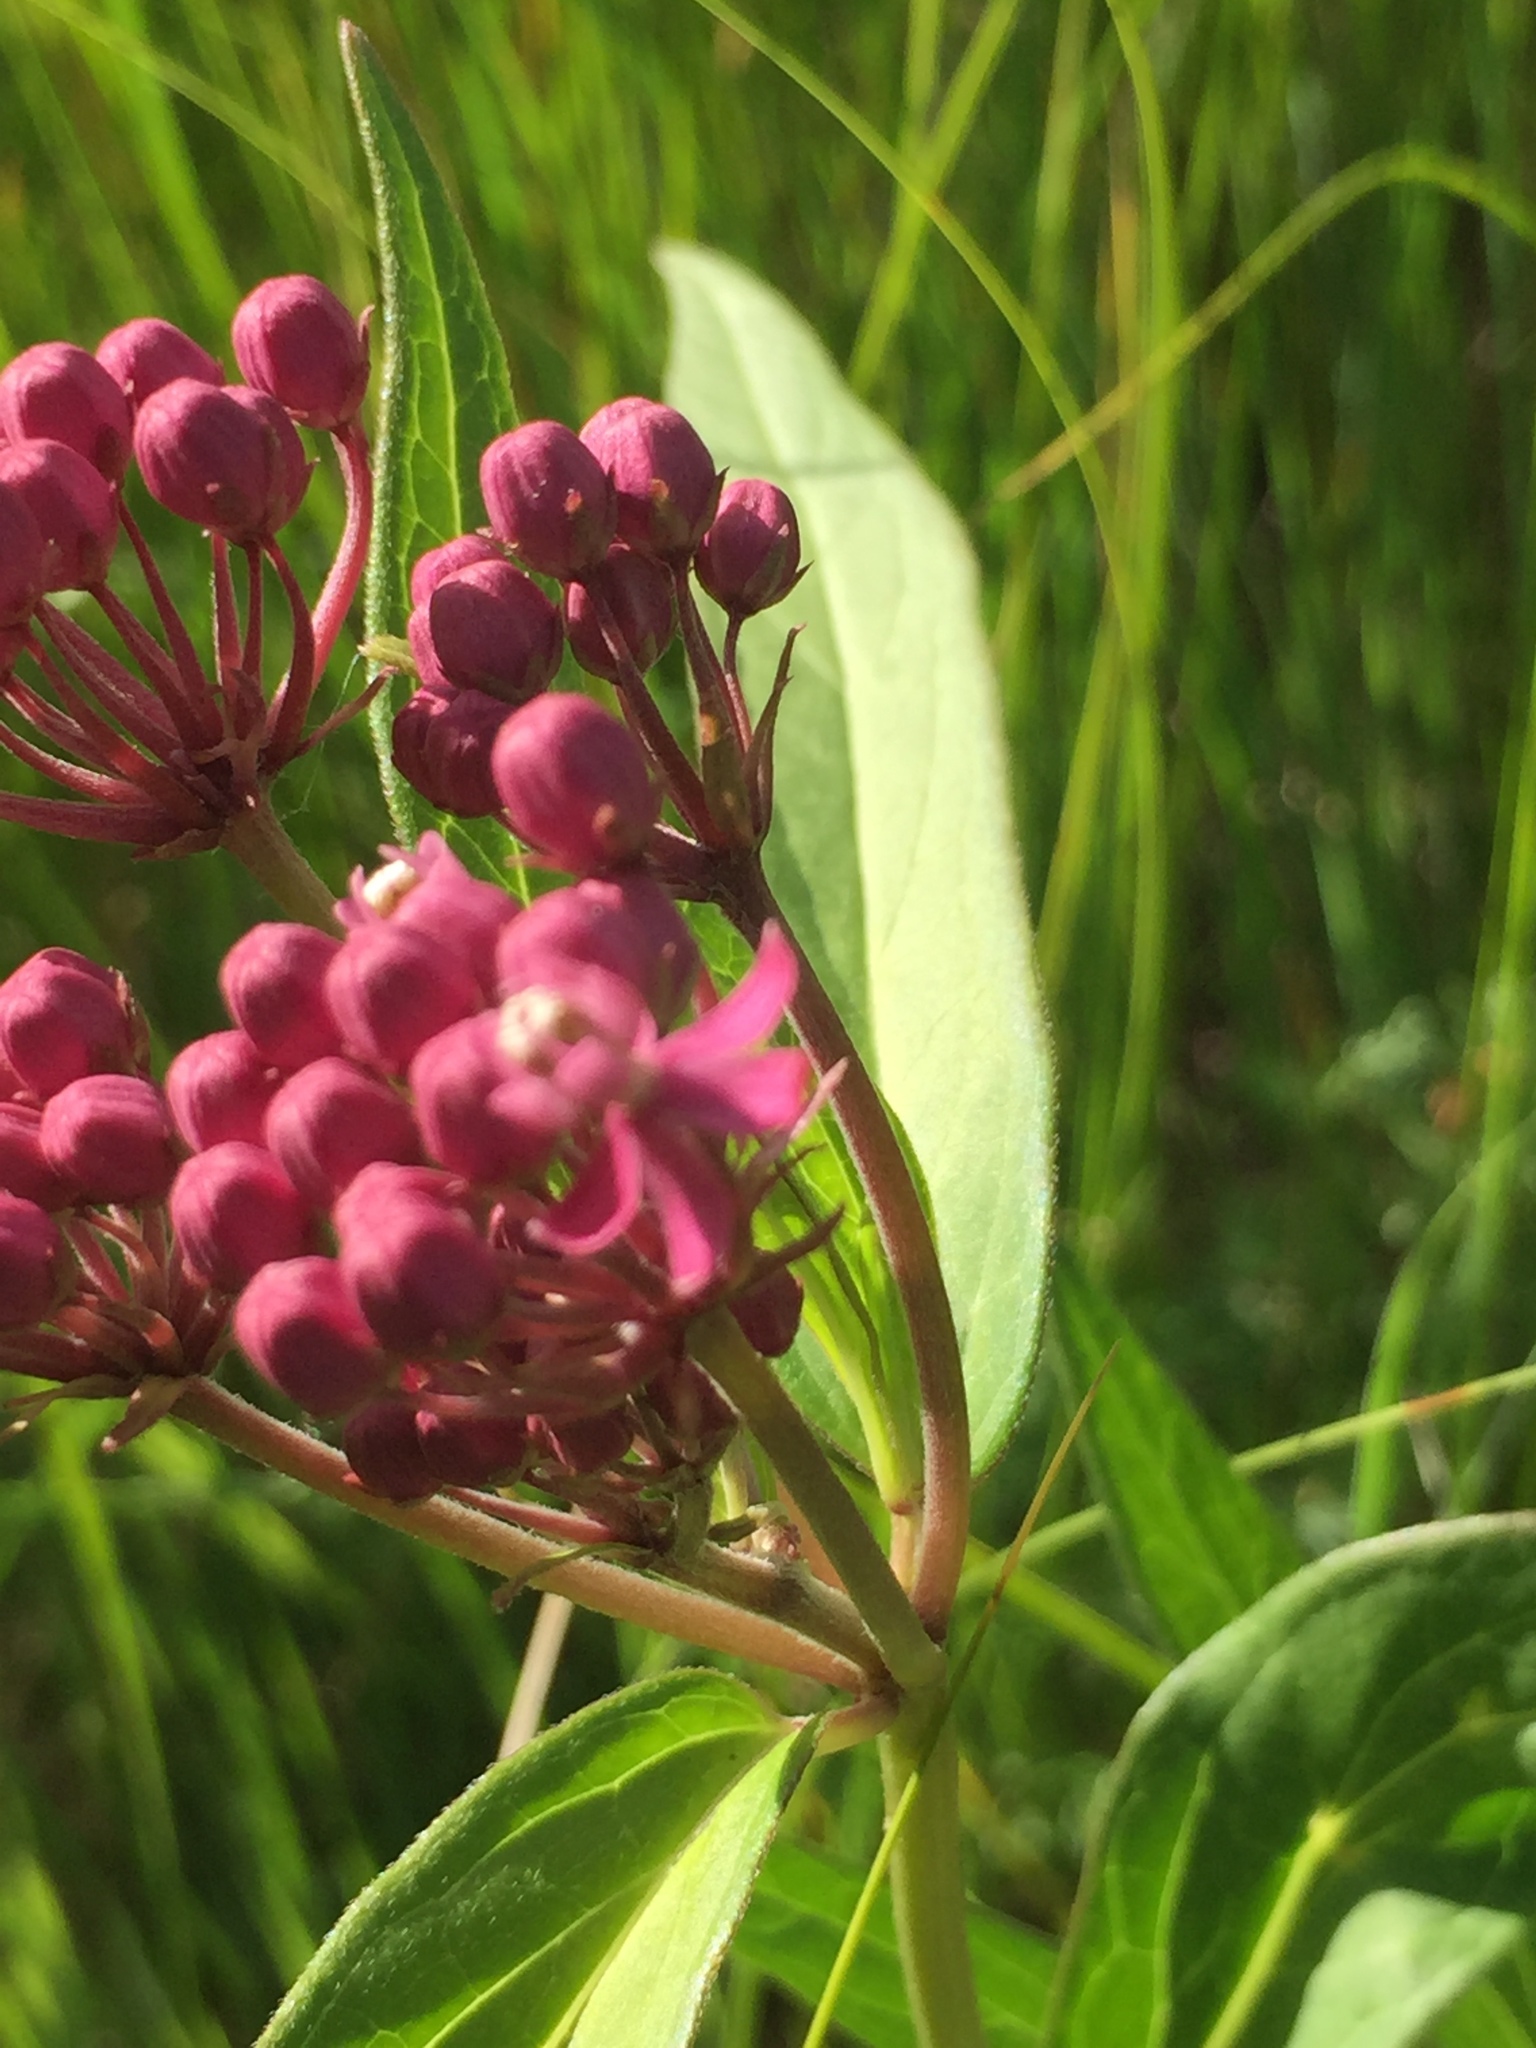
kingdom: Plantae
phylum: Tracheophyta
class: Magnoliopsida
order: Gentianales
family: Apocynaceae
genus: Asclepias
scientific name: Asclepias incarnata
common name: Swamp milkweed
